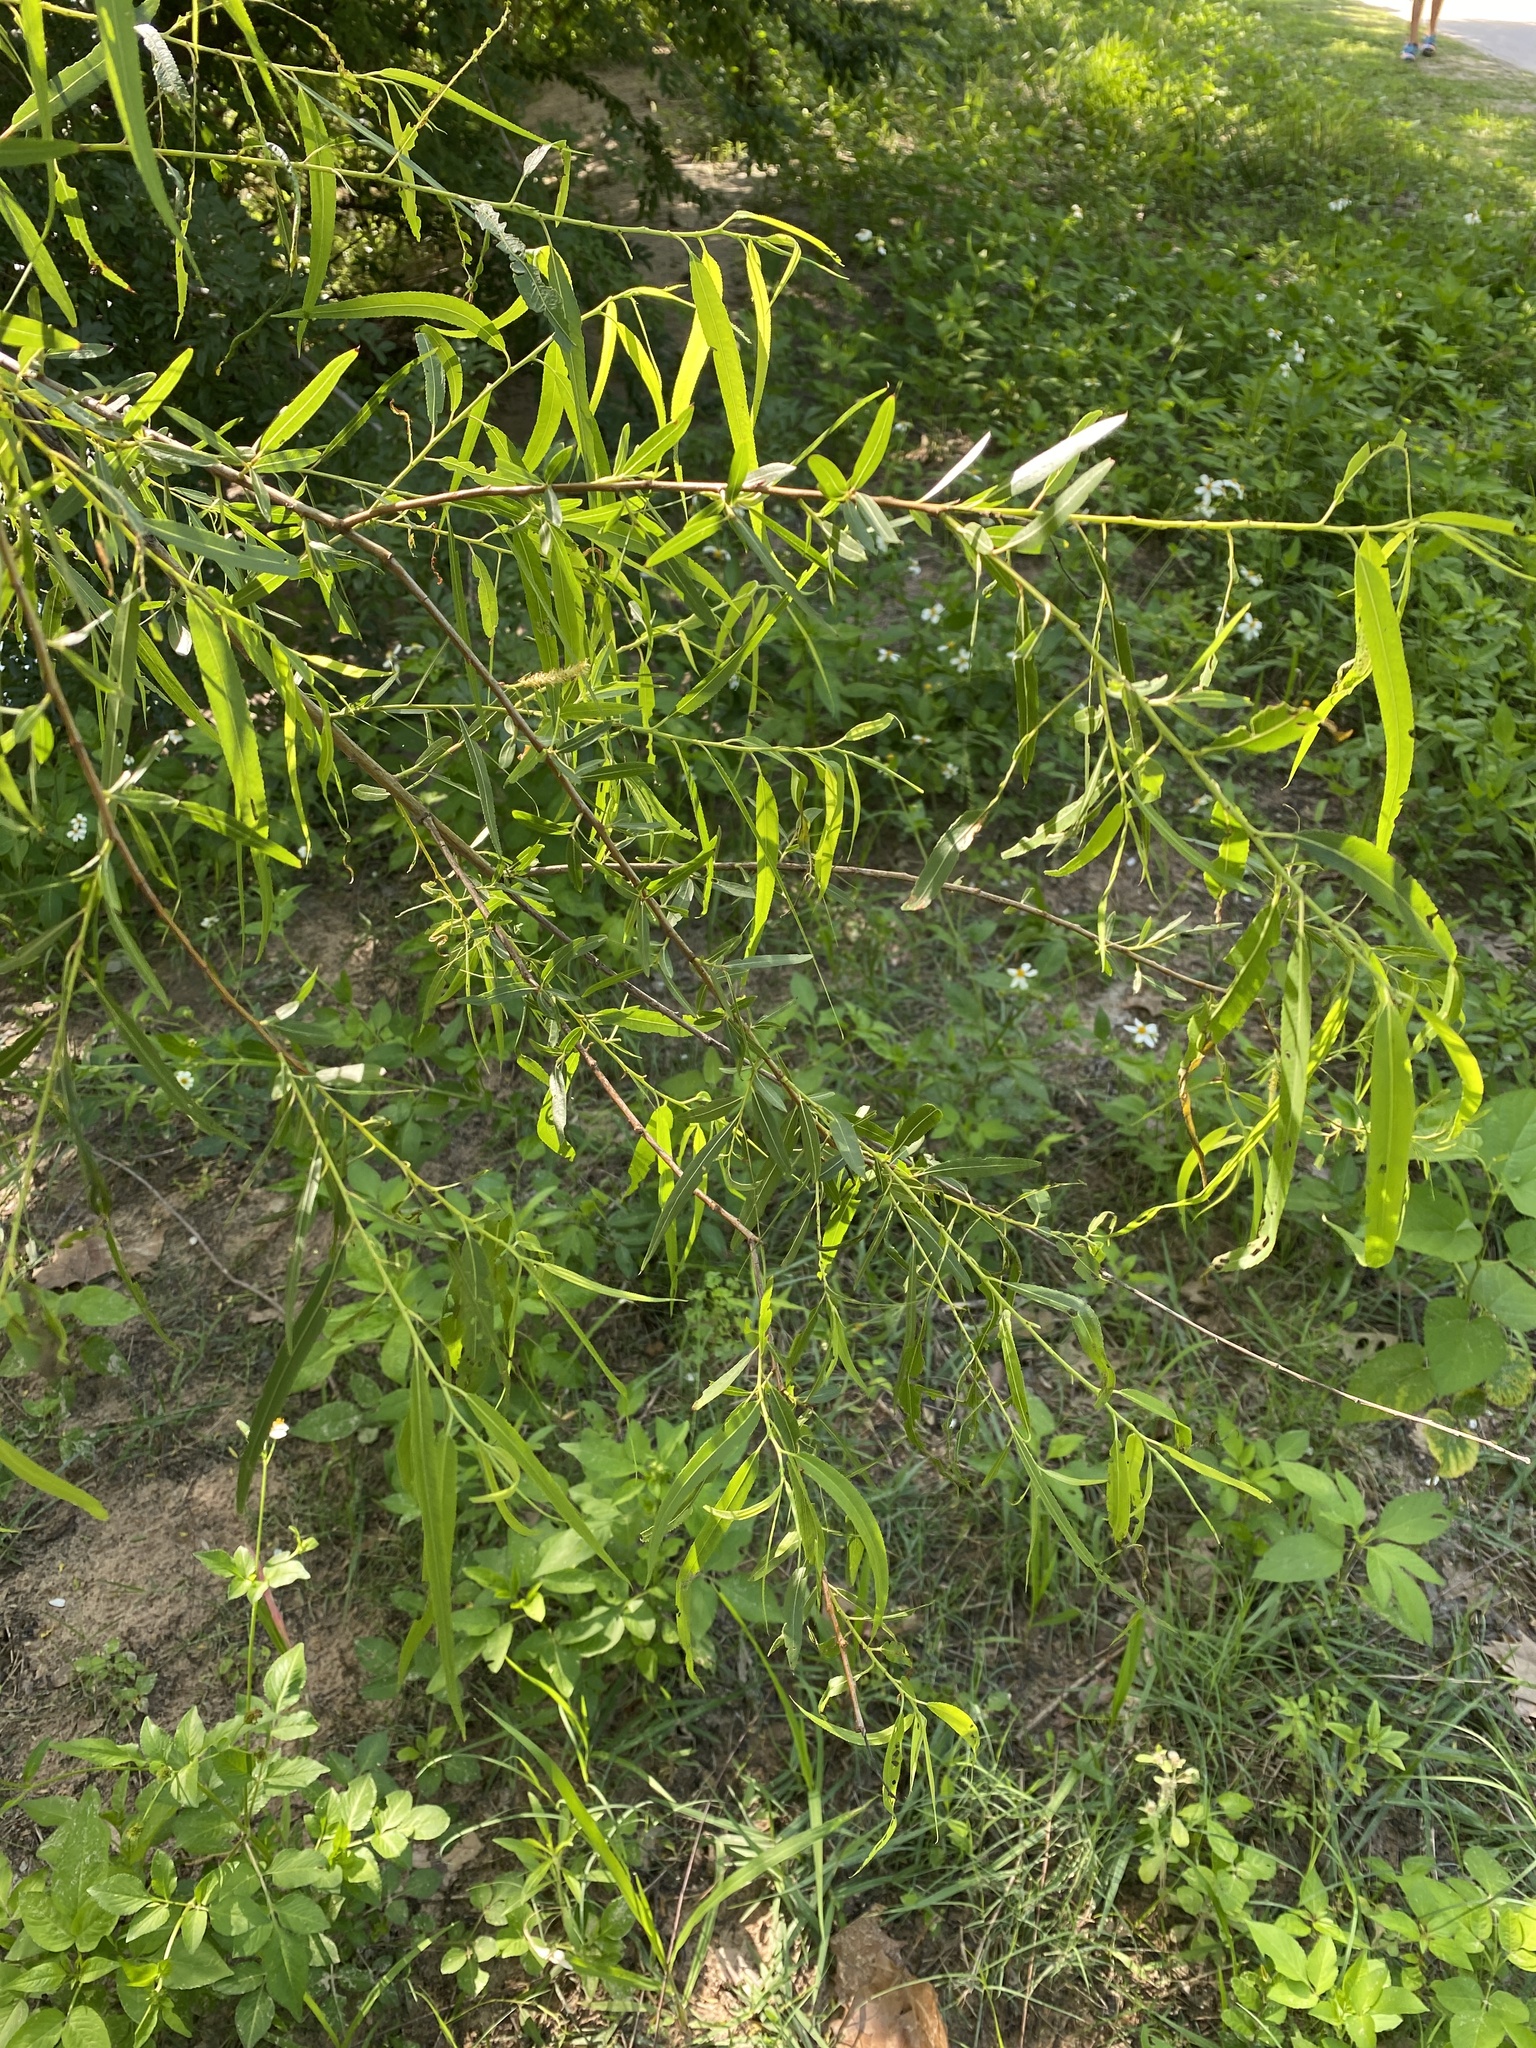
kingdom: Plantae
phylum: Tracheophyta
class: Magnoliopsida
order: Malpighiales
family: Salicaceae
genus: Salix
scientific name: Salix nigra
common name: Black willow
